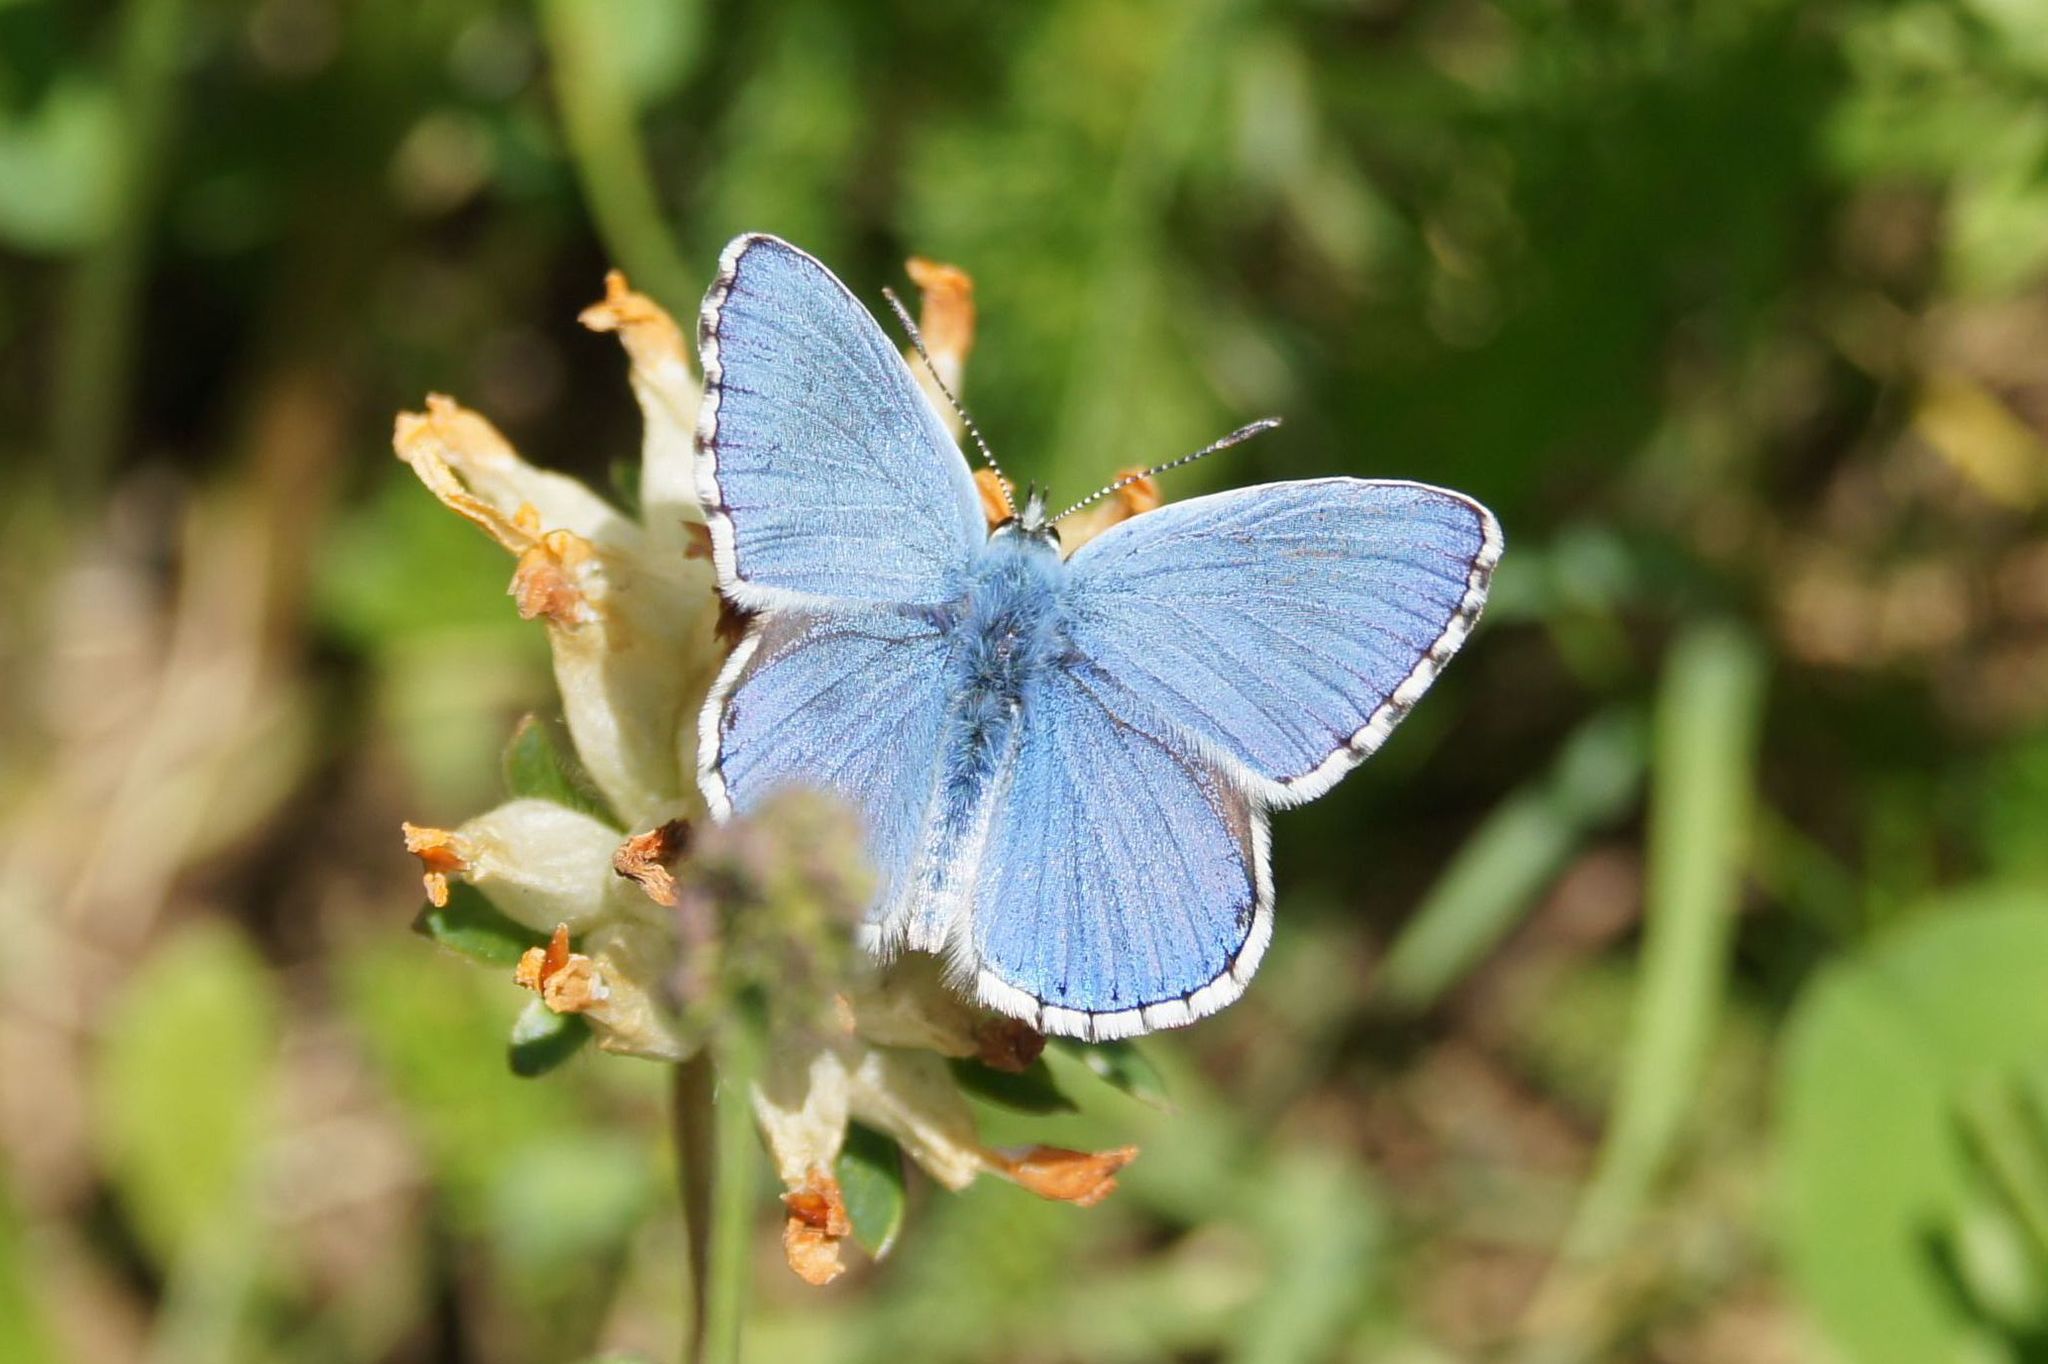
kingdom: Animalia
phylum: Arthropoda
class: Insecta
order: Lepidoptera
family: Lycaenidae
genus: Lysandra
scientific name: Lysandra bellargus
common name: Adonis blue
